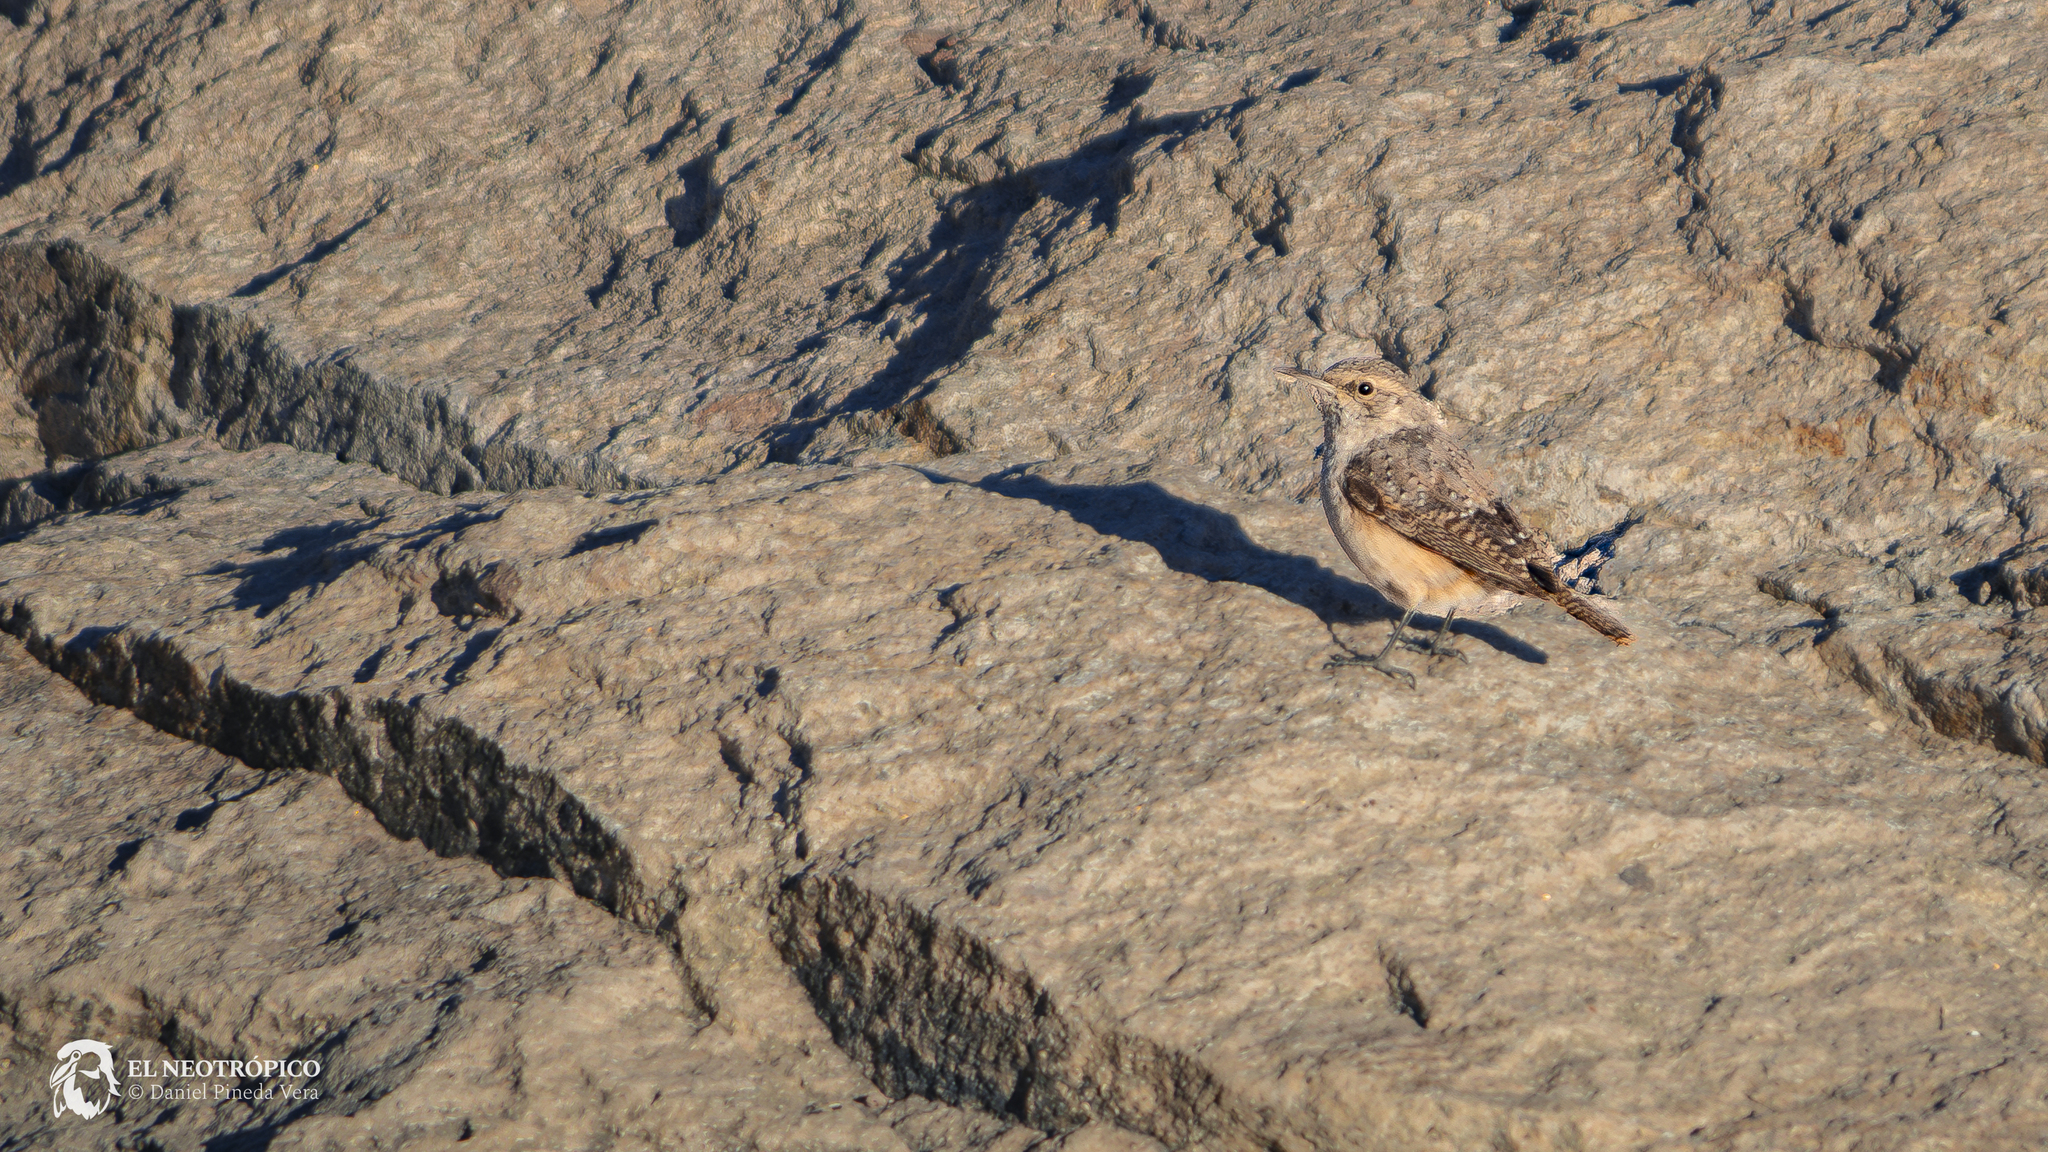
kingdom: Animalia
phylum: Chordata
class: Aves
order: Passeriformes
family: Troglodytidae
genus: Salpinctes
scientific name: Salpinctes obsoletus
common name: Rock wren
